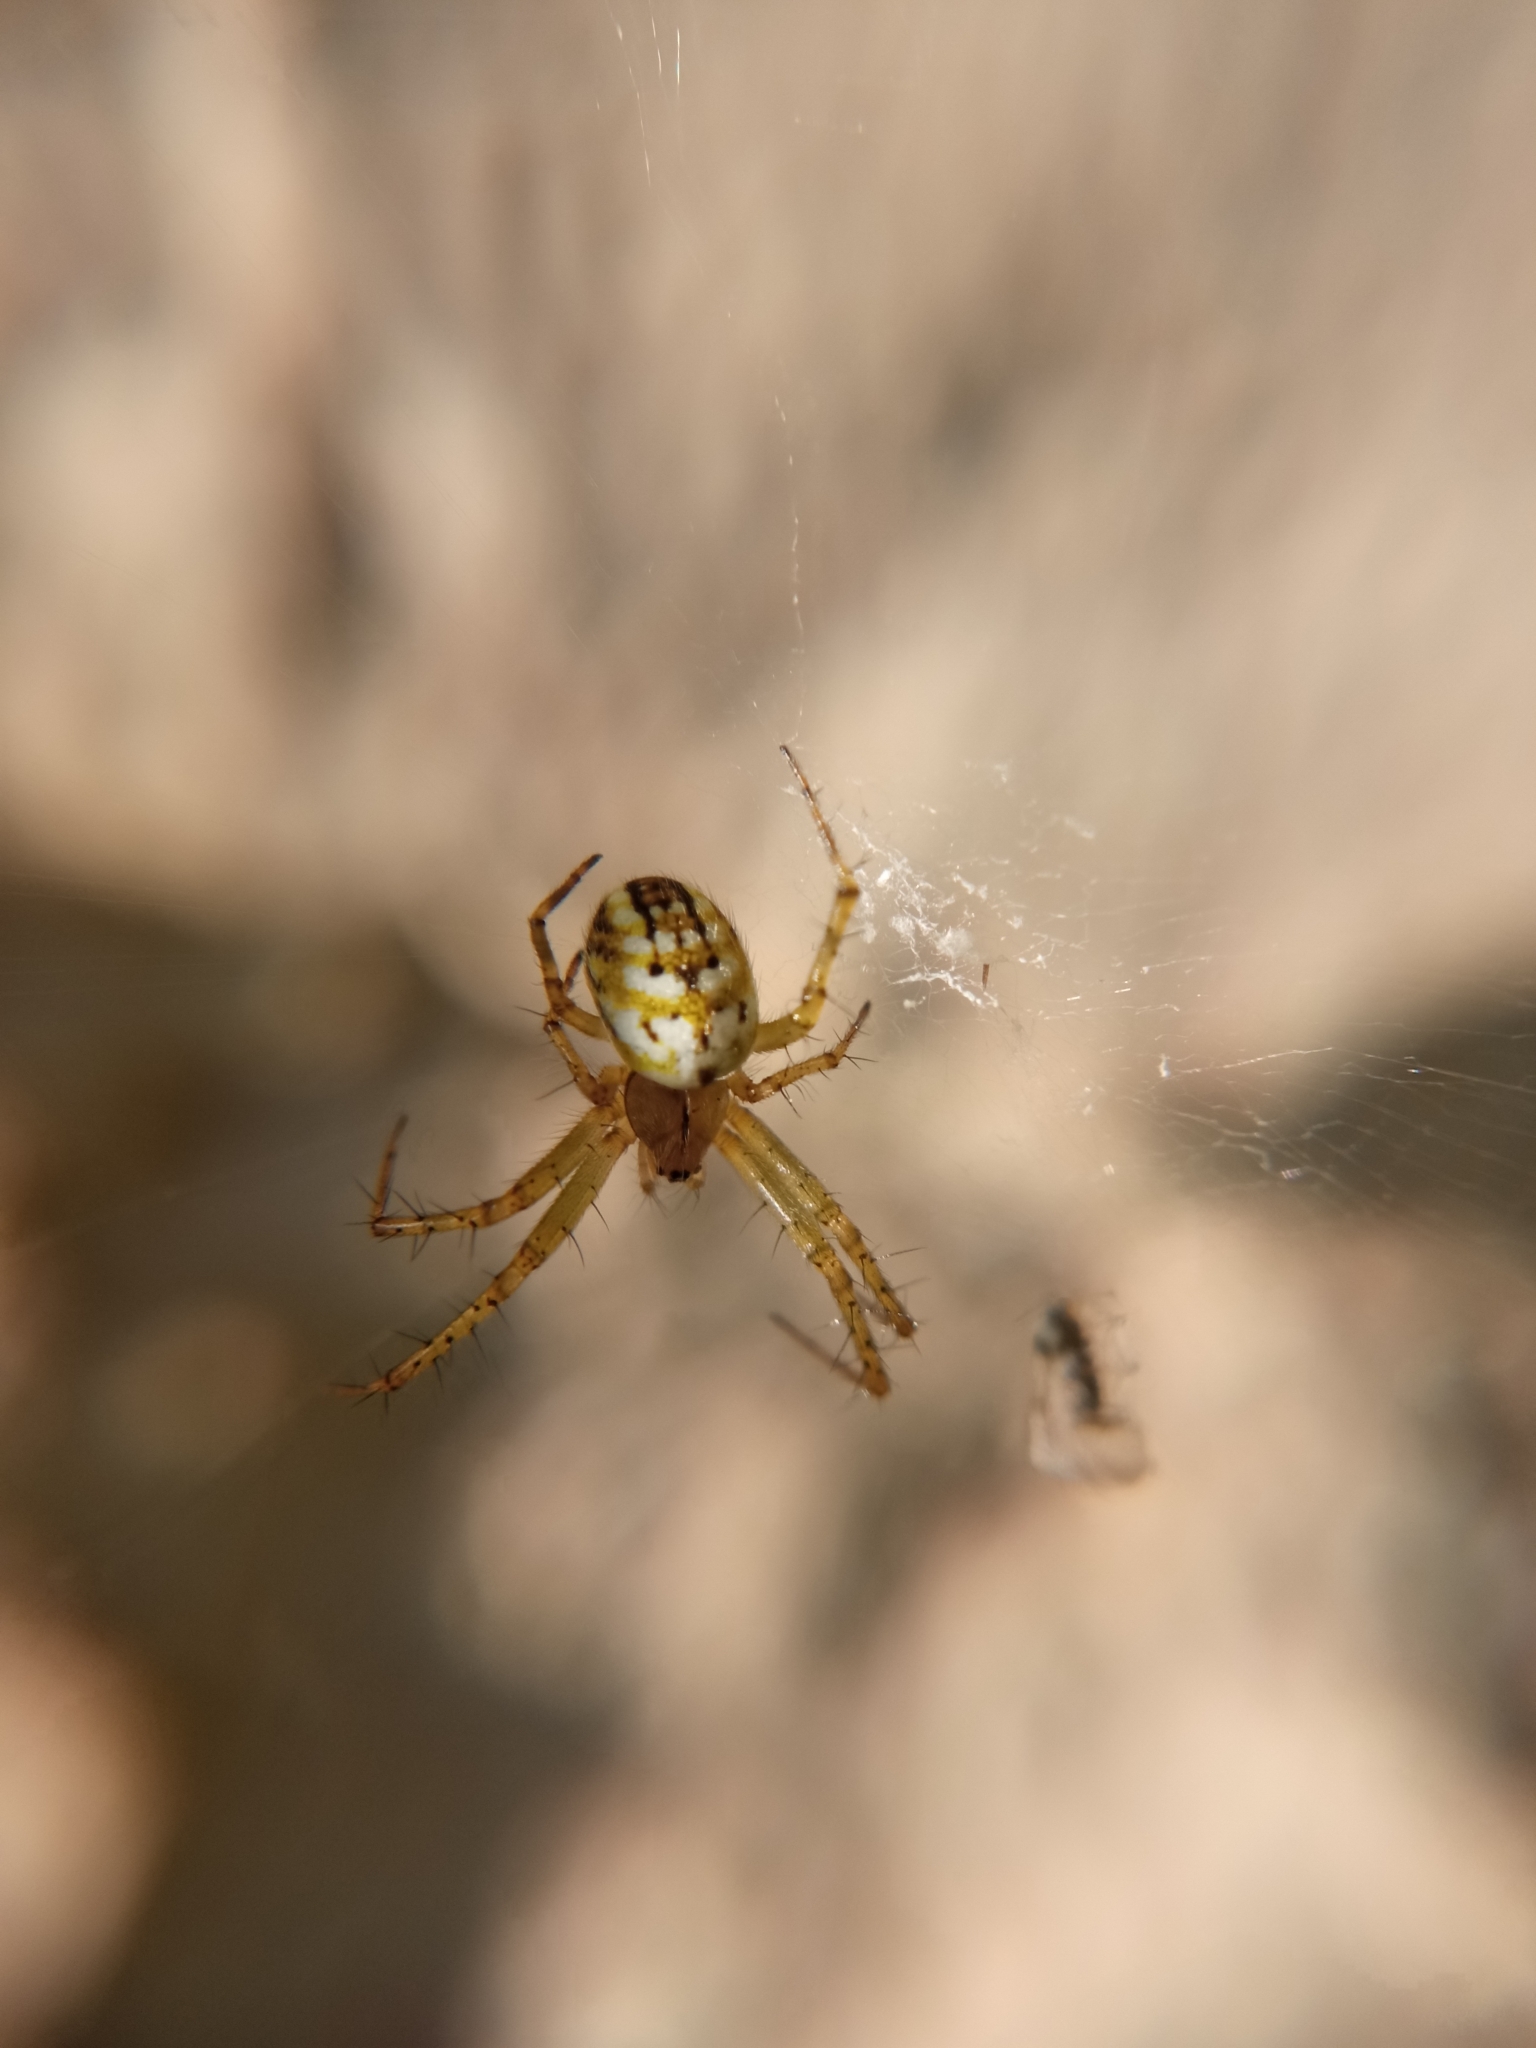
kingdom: Animalia
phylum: Arthropoda
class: Arachnida
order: Araneae
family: Araneidae
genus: Mangora
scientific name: Mangora acalypha
